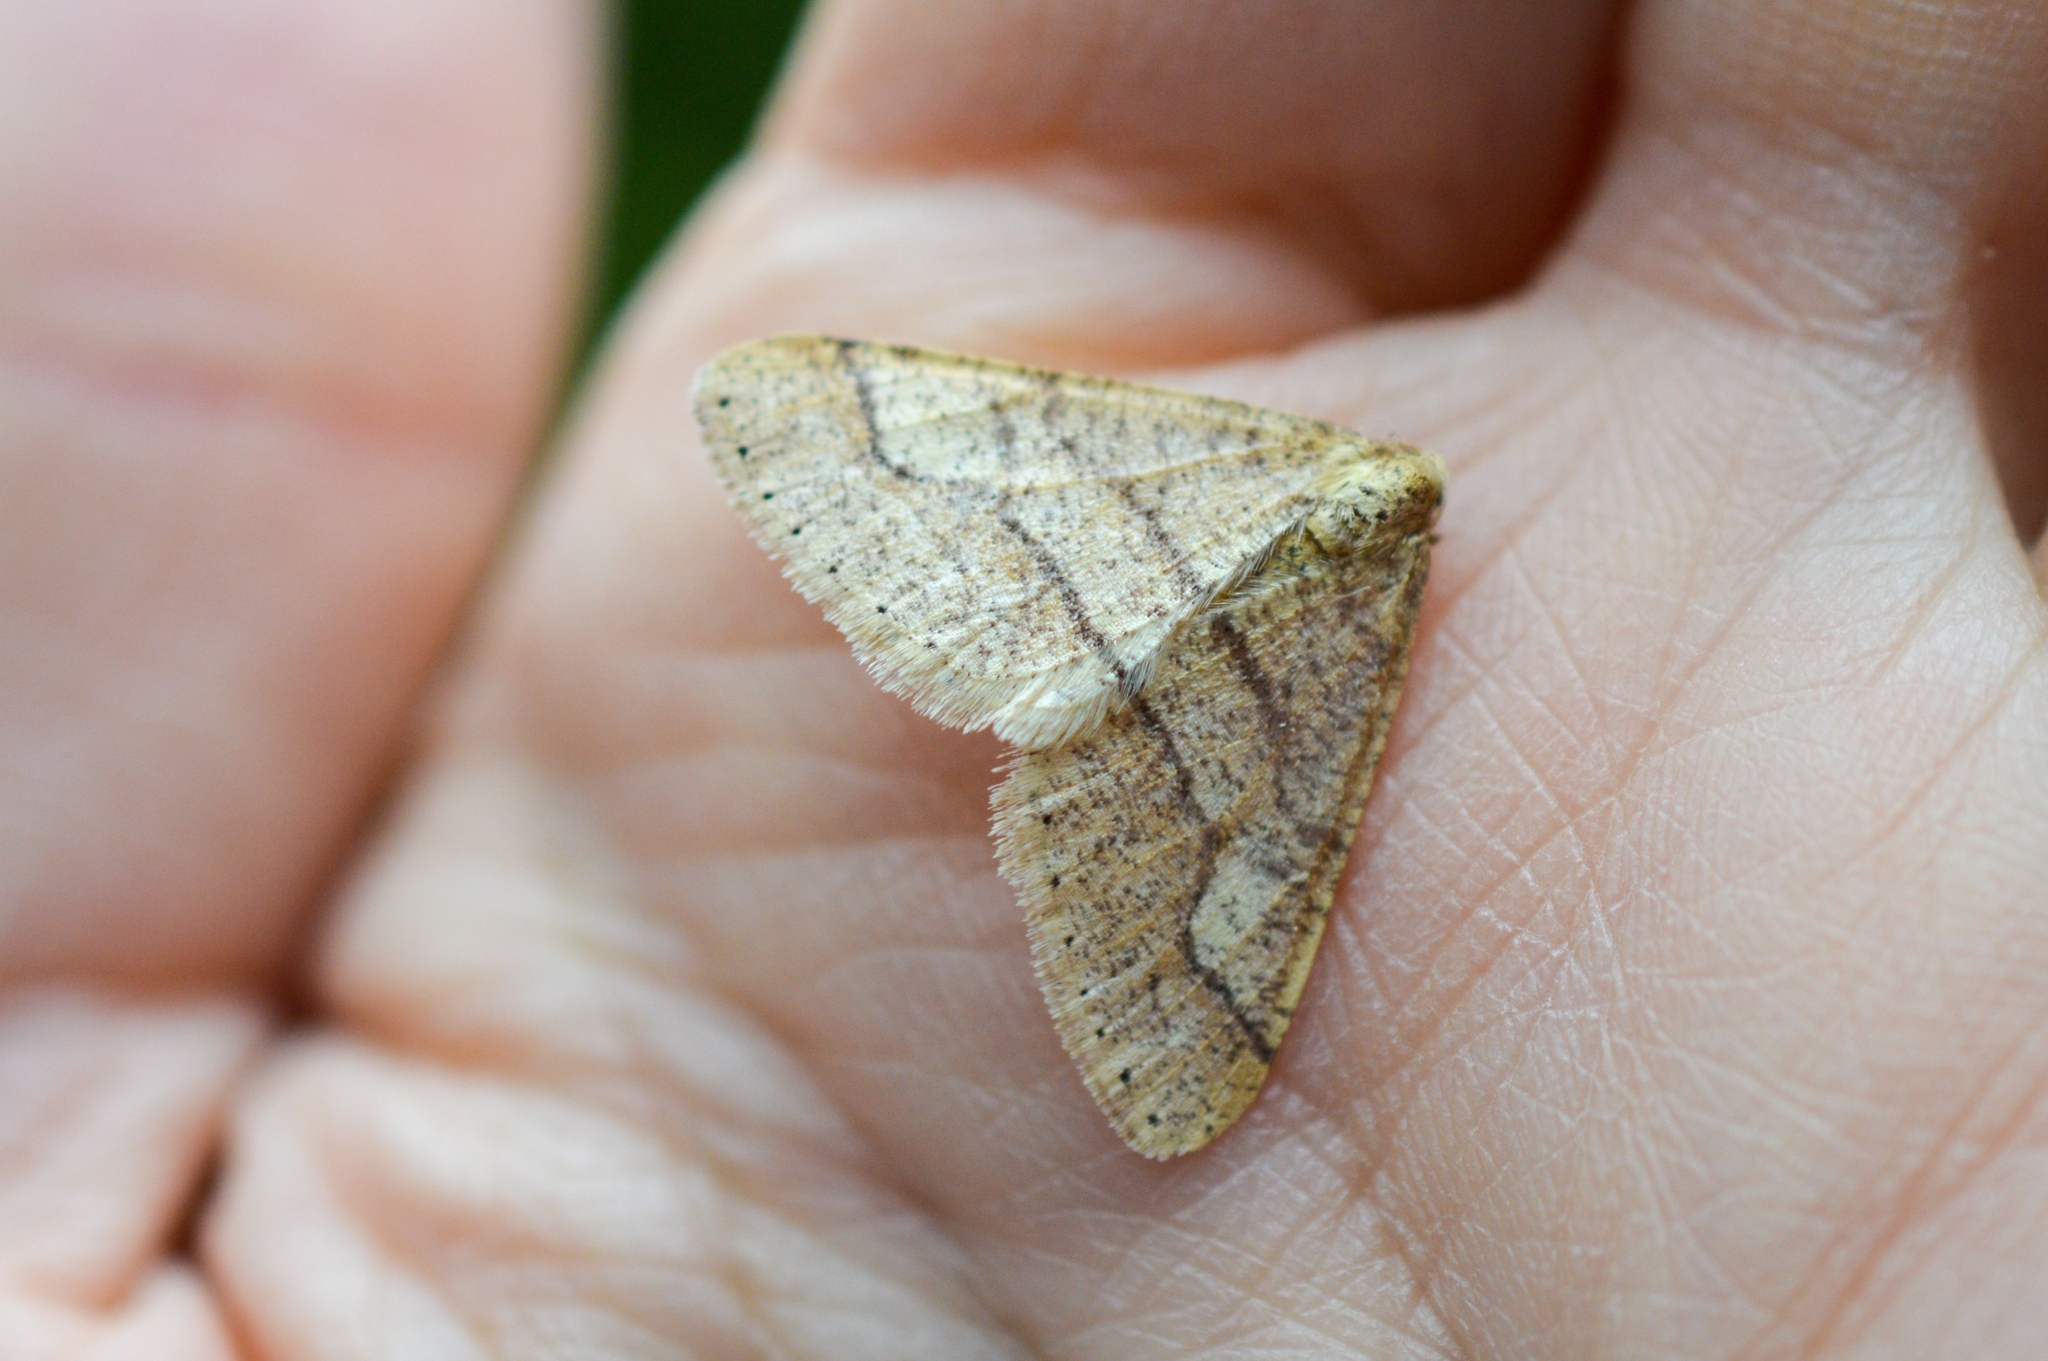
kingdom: Animalia
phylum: Arthropoda
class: Insecta
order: Lepidoptera
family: Geometridae
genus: Agriopis
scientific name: Agriopis marginaria
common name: Dotted border
